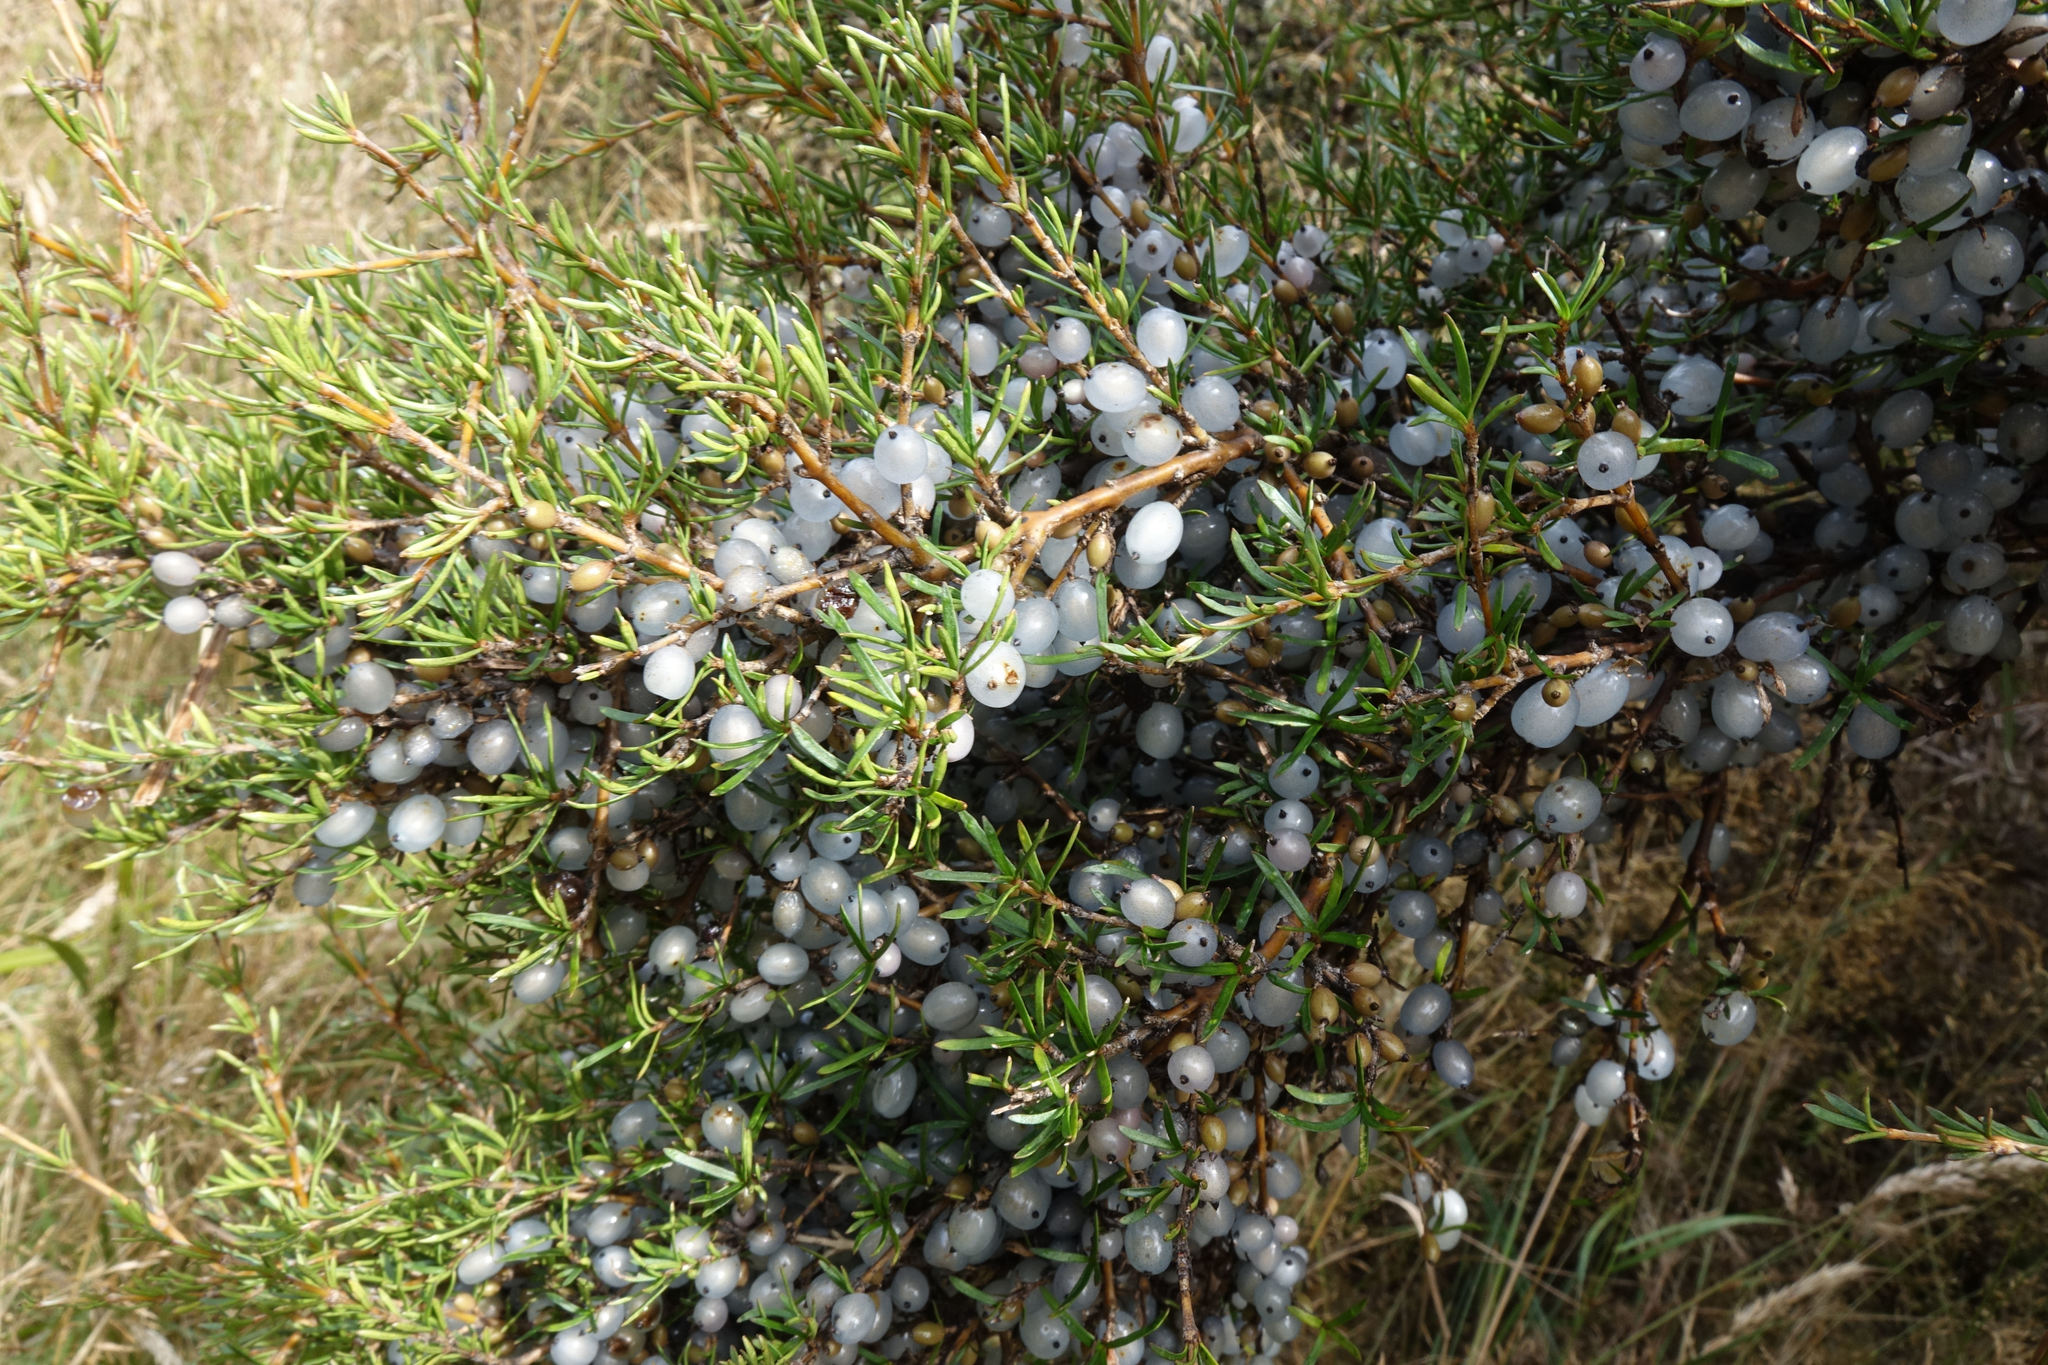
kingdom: Plantae
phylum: Tracheophyta
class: Magnoliopsida
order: Gentianales
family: Rubiaceae
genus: Coprosma
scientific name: Coprosma rugosa
